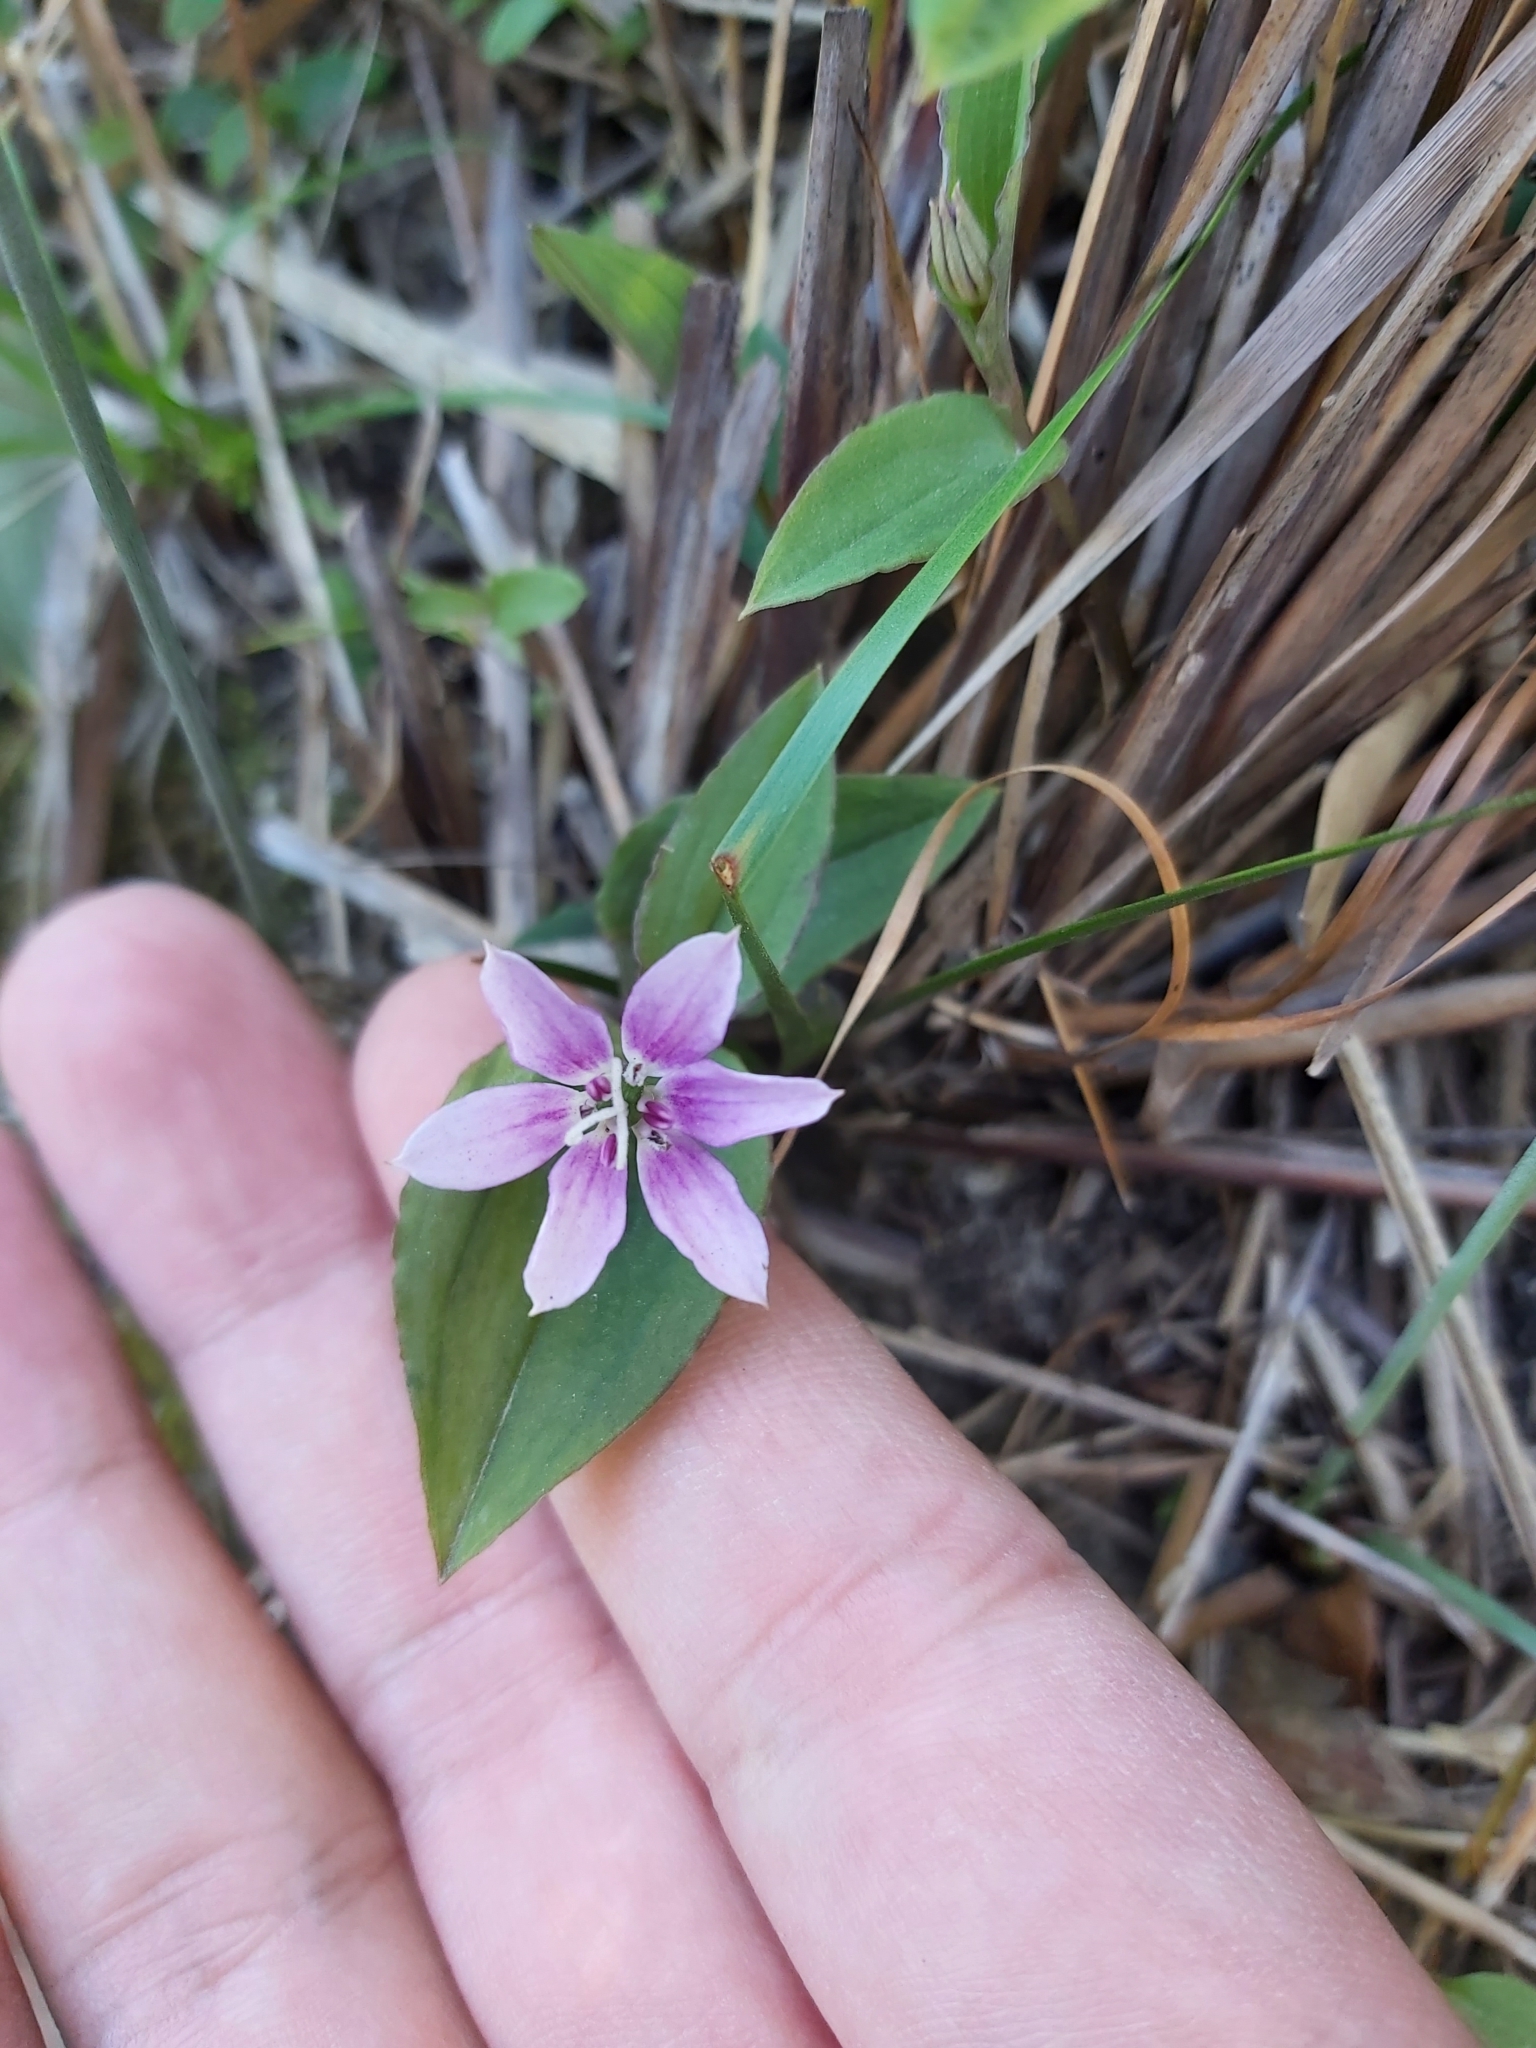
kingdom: Plantae
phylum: Tracheophyta
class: Liliopsida
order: Liliales
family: Colchicaceae
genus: Schelhammera
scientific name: Schelhammera undulata
